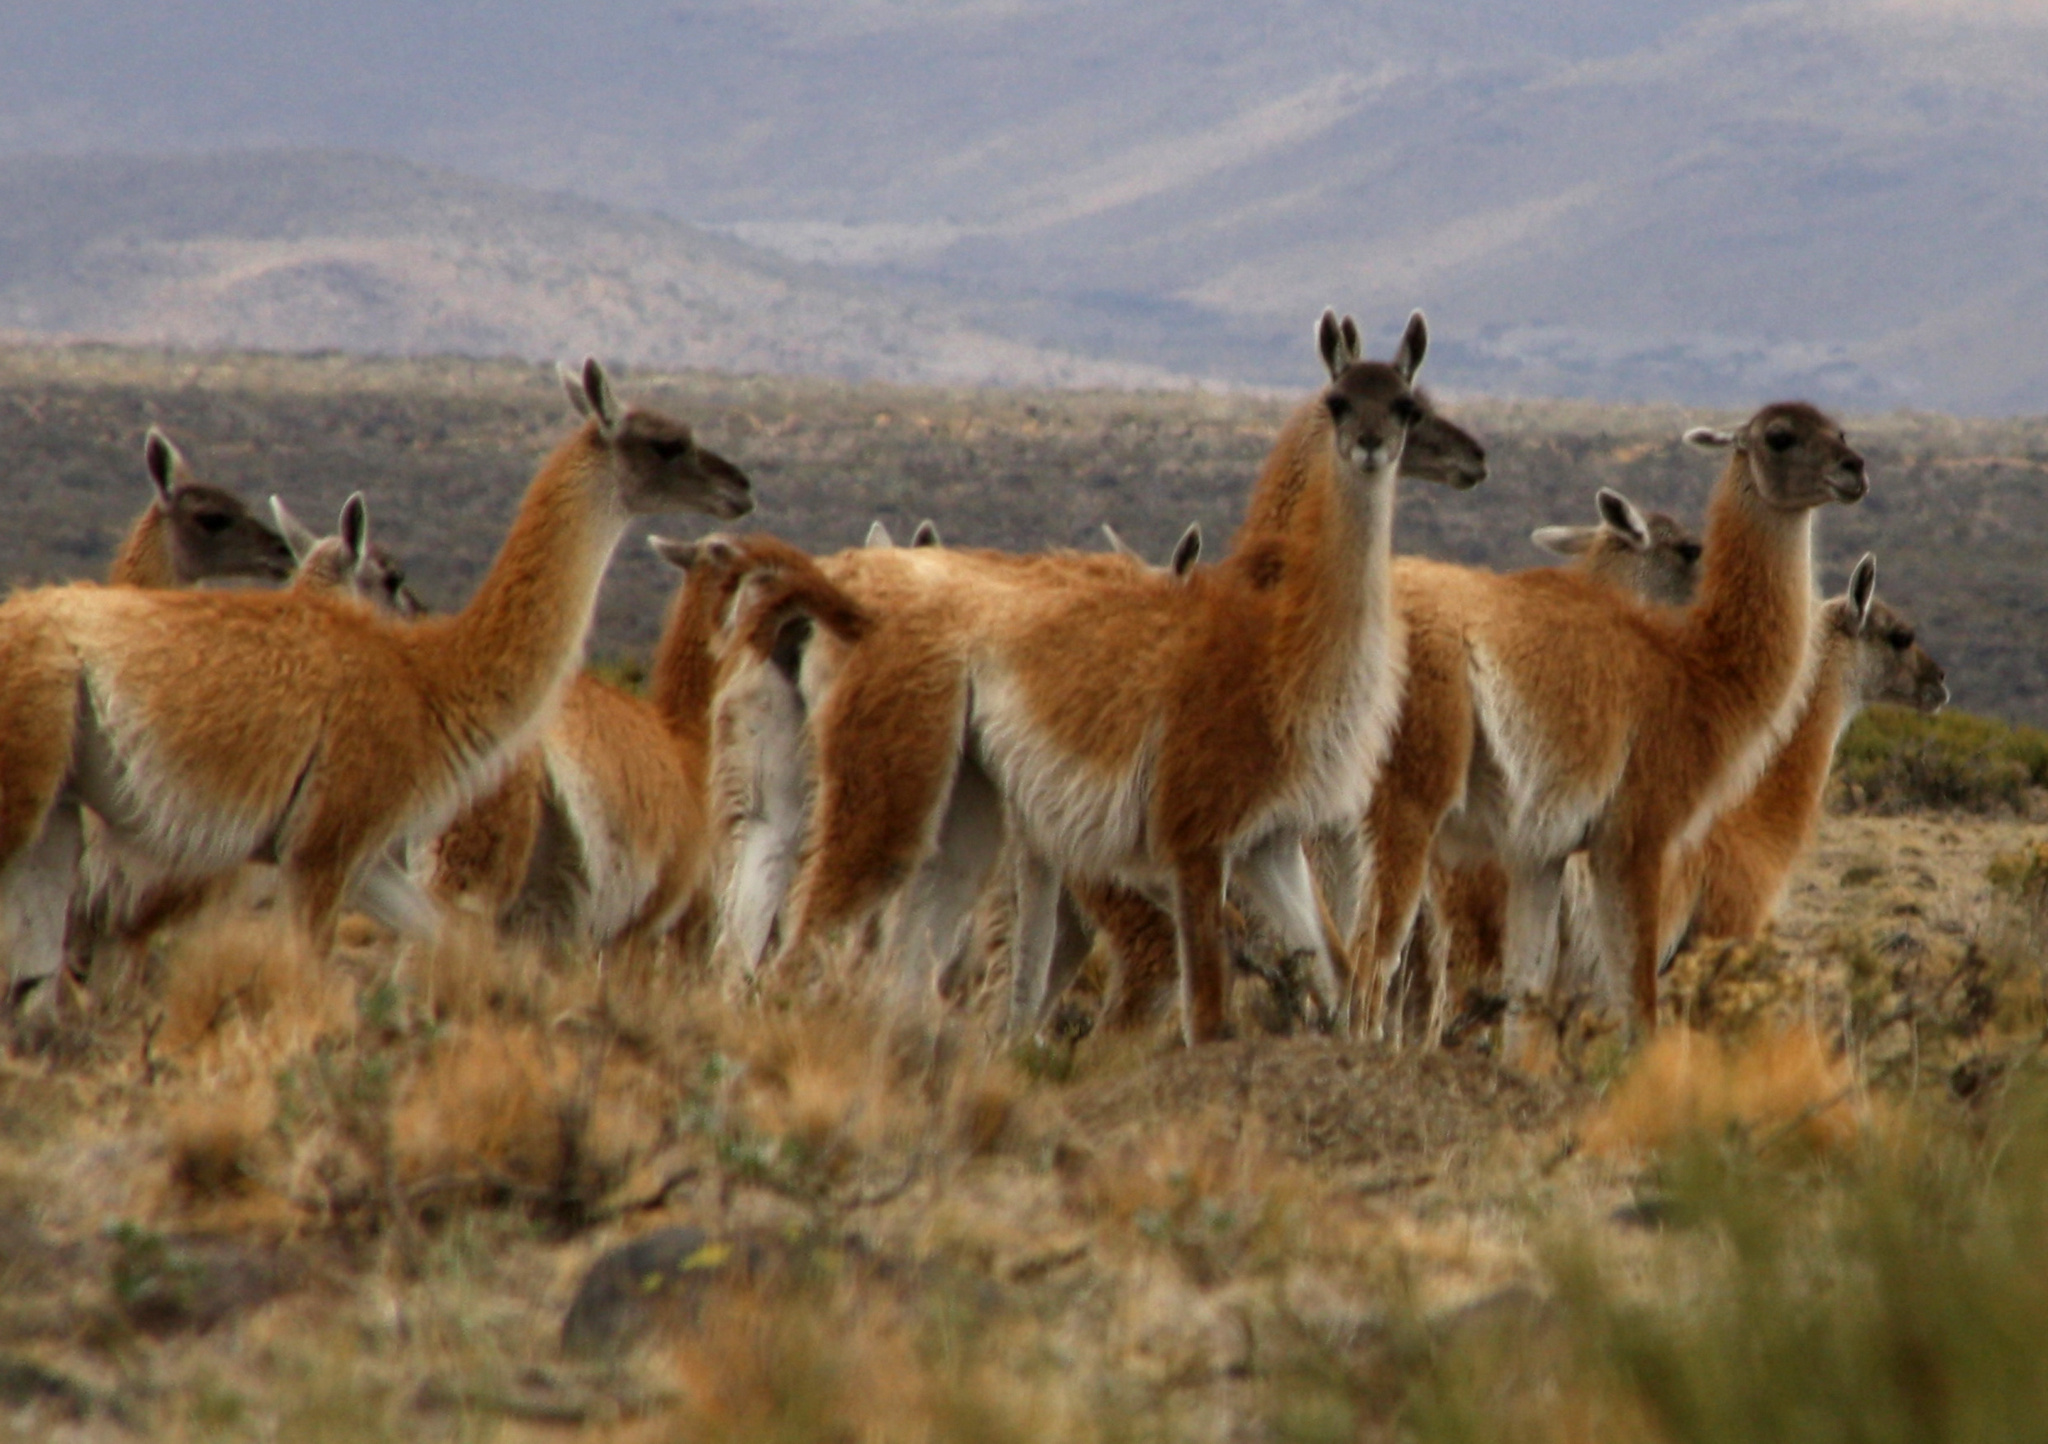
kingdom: Animalia
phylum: Chordata
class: Mammalia
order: Artiodactyla
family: Camelidae
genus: Lama
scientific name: Lama glama
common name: Llama
